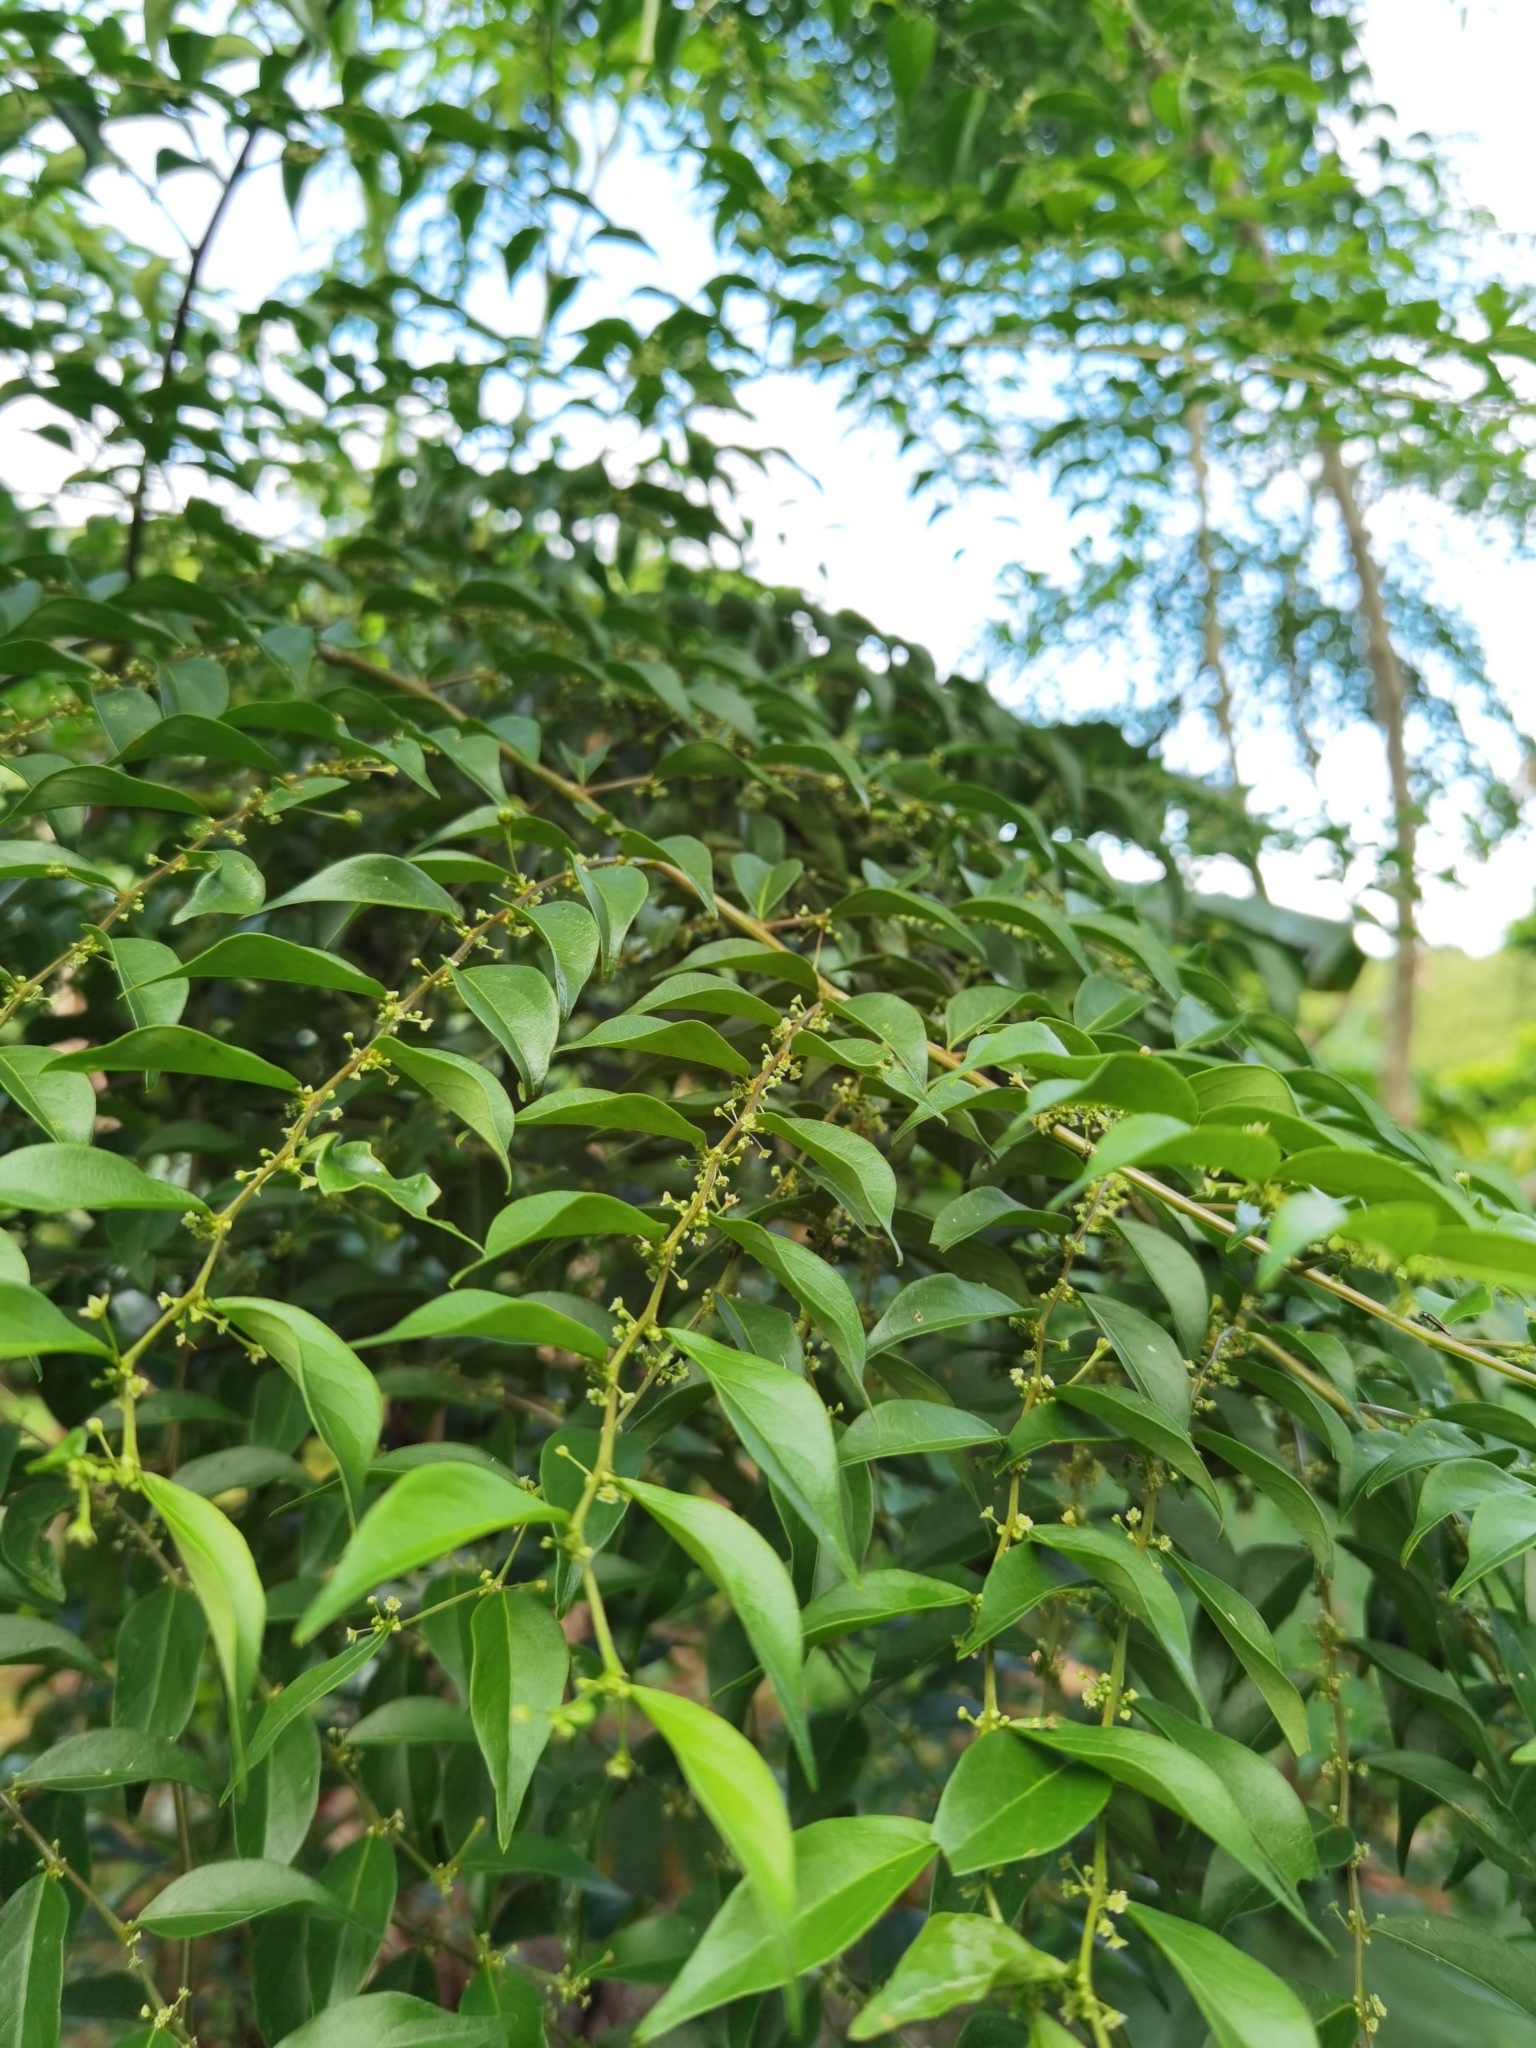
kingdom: Plantae
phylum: Tracheophyta
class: Magnoliopsida
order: Malpighiales
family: Phyllanthaceae
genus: Phyllanthus
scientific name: Phyllanthus acuminatus
